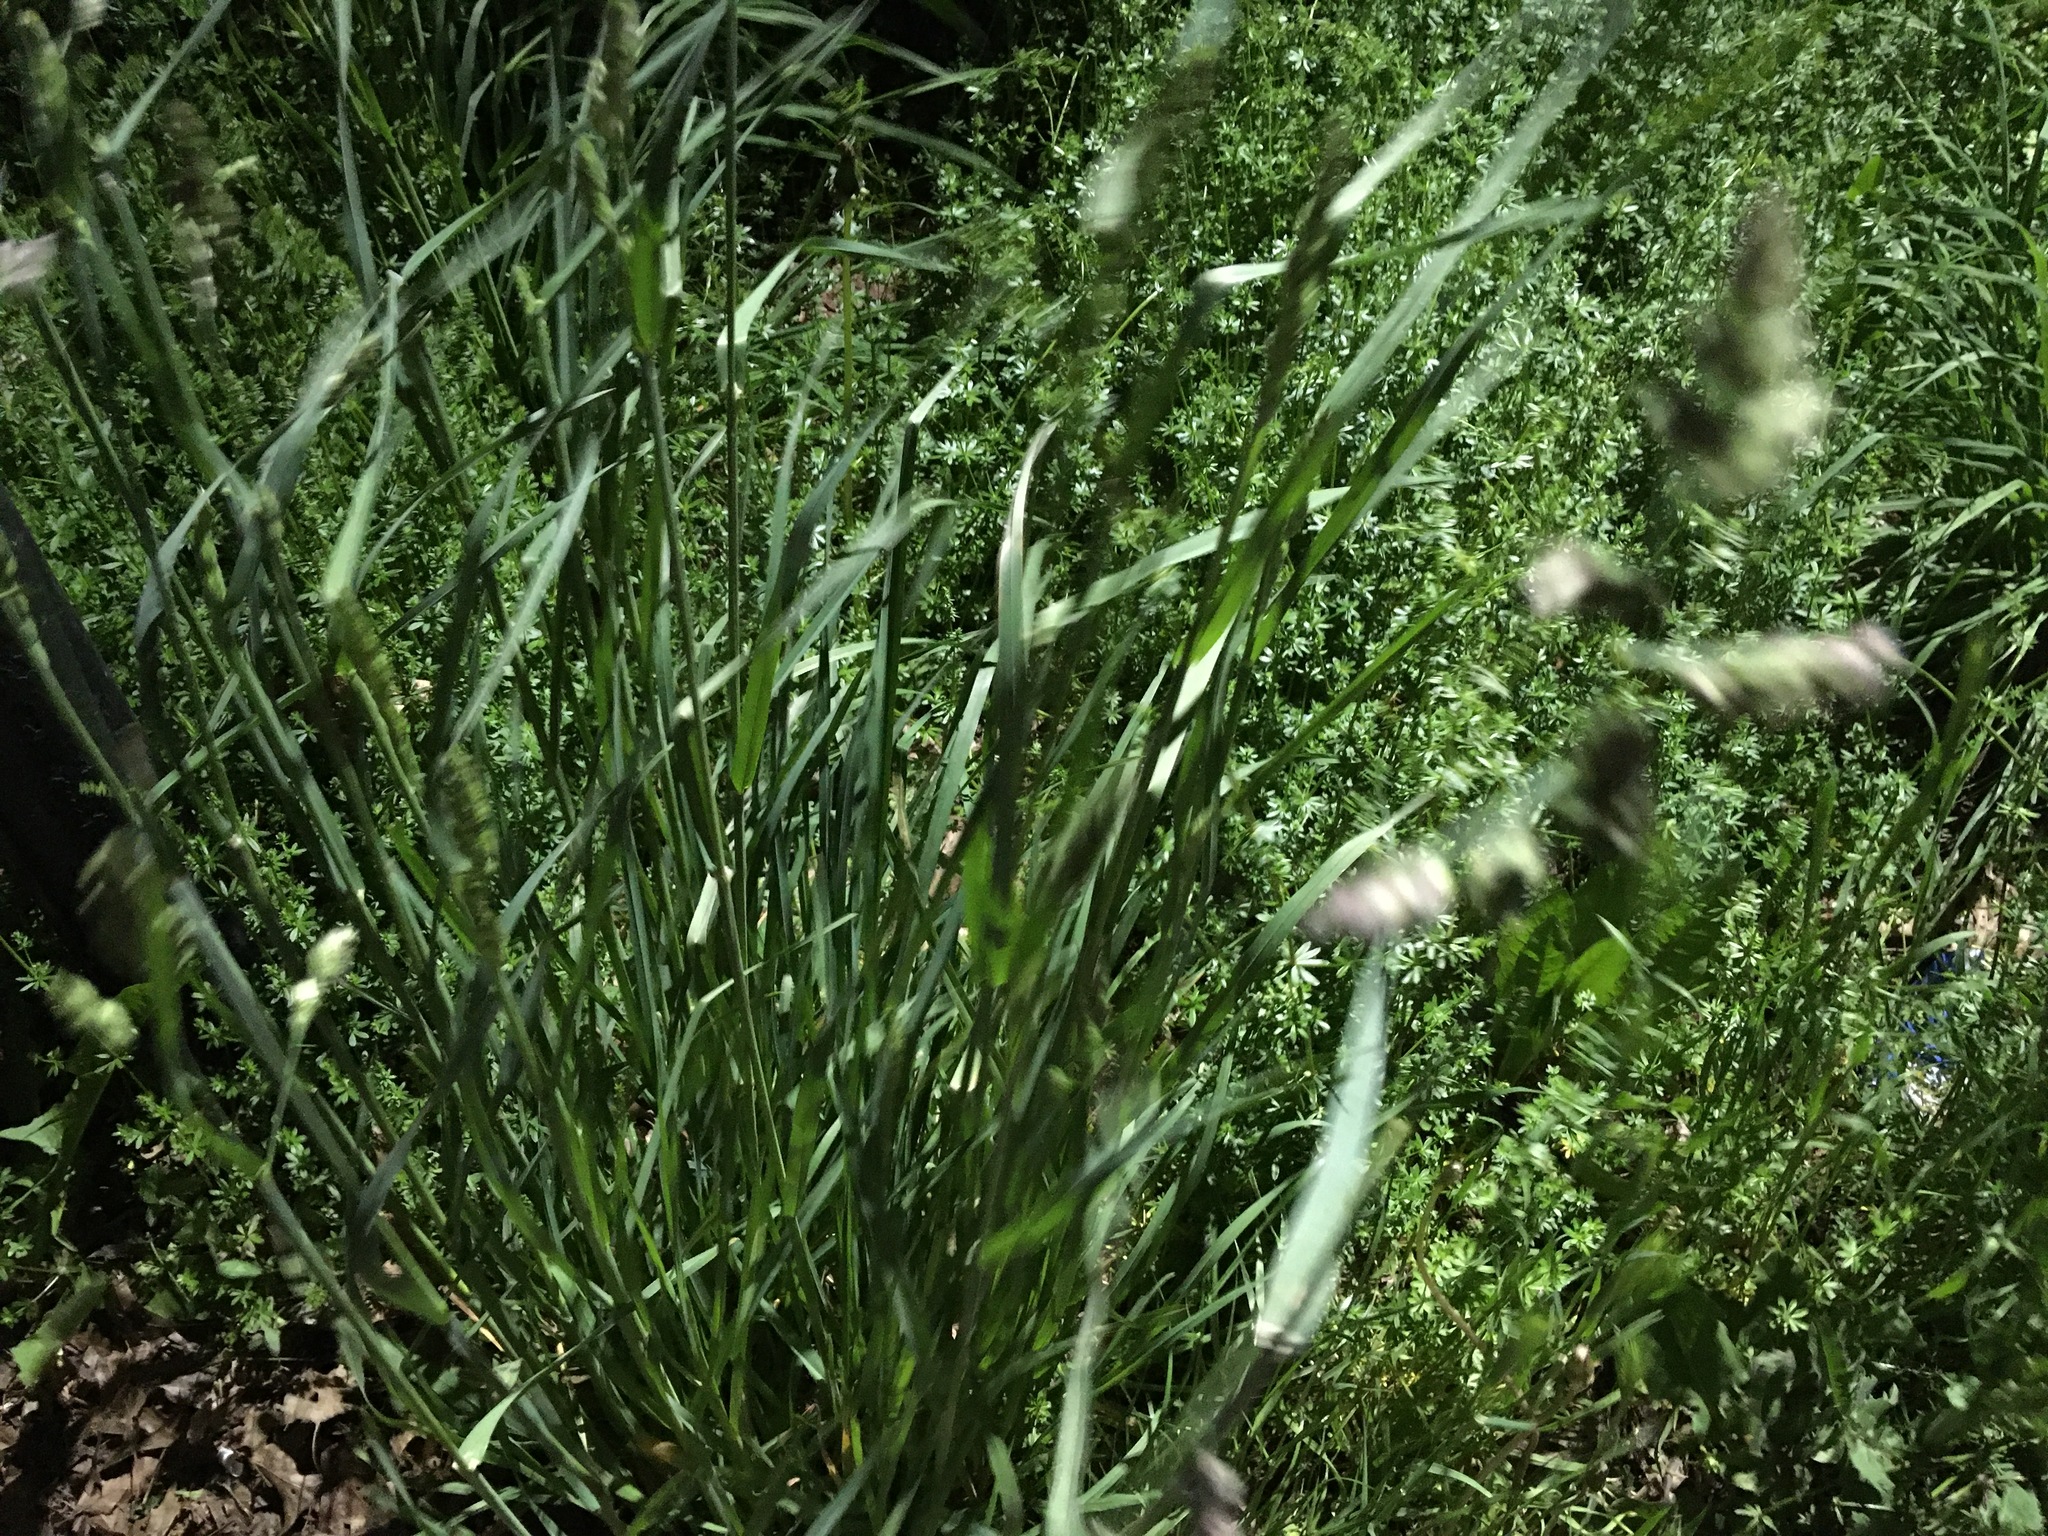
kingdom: Plantae
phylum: Tracheophyta
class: Liliopsida
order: Poales
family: Poaceae
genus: Dactylis
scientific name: Dactylis glomerata
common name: Orchardgrass
